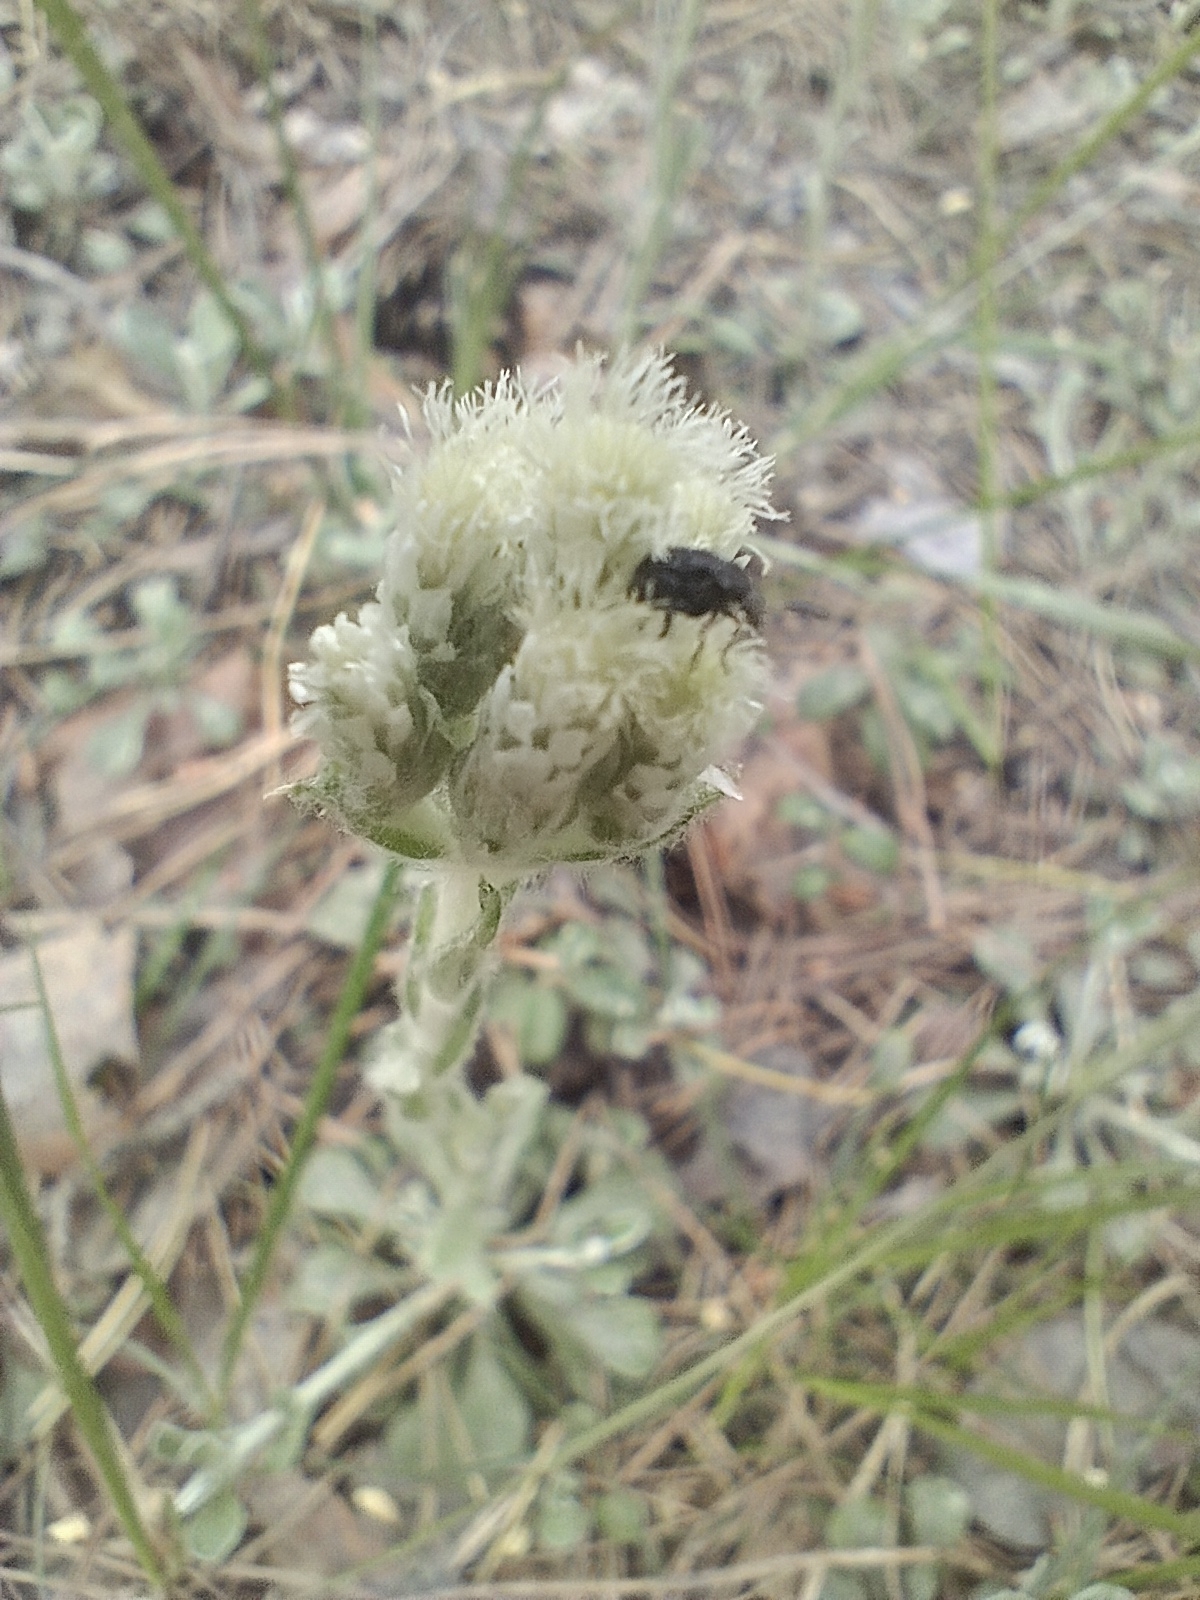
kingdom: Plantae
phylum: Tracheophyta
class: Magnoliopsida
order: Asterales
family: Asteraceae
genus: Antennaria
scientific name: Antennaria dioica
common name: Mountain everlasting
